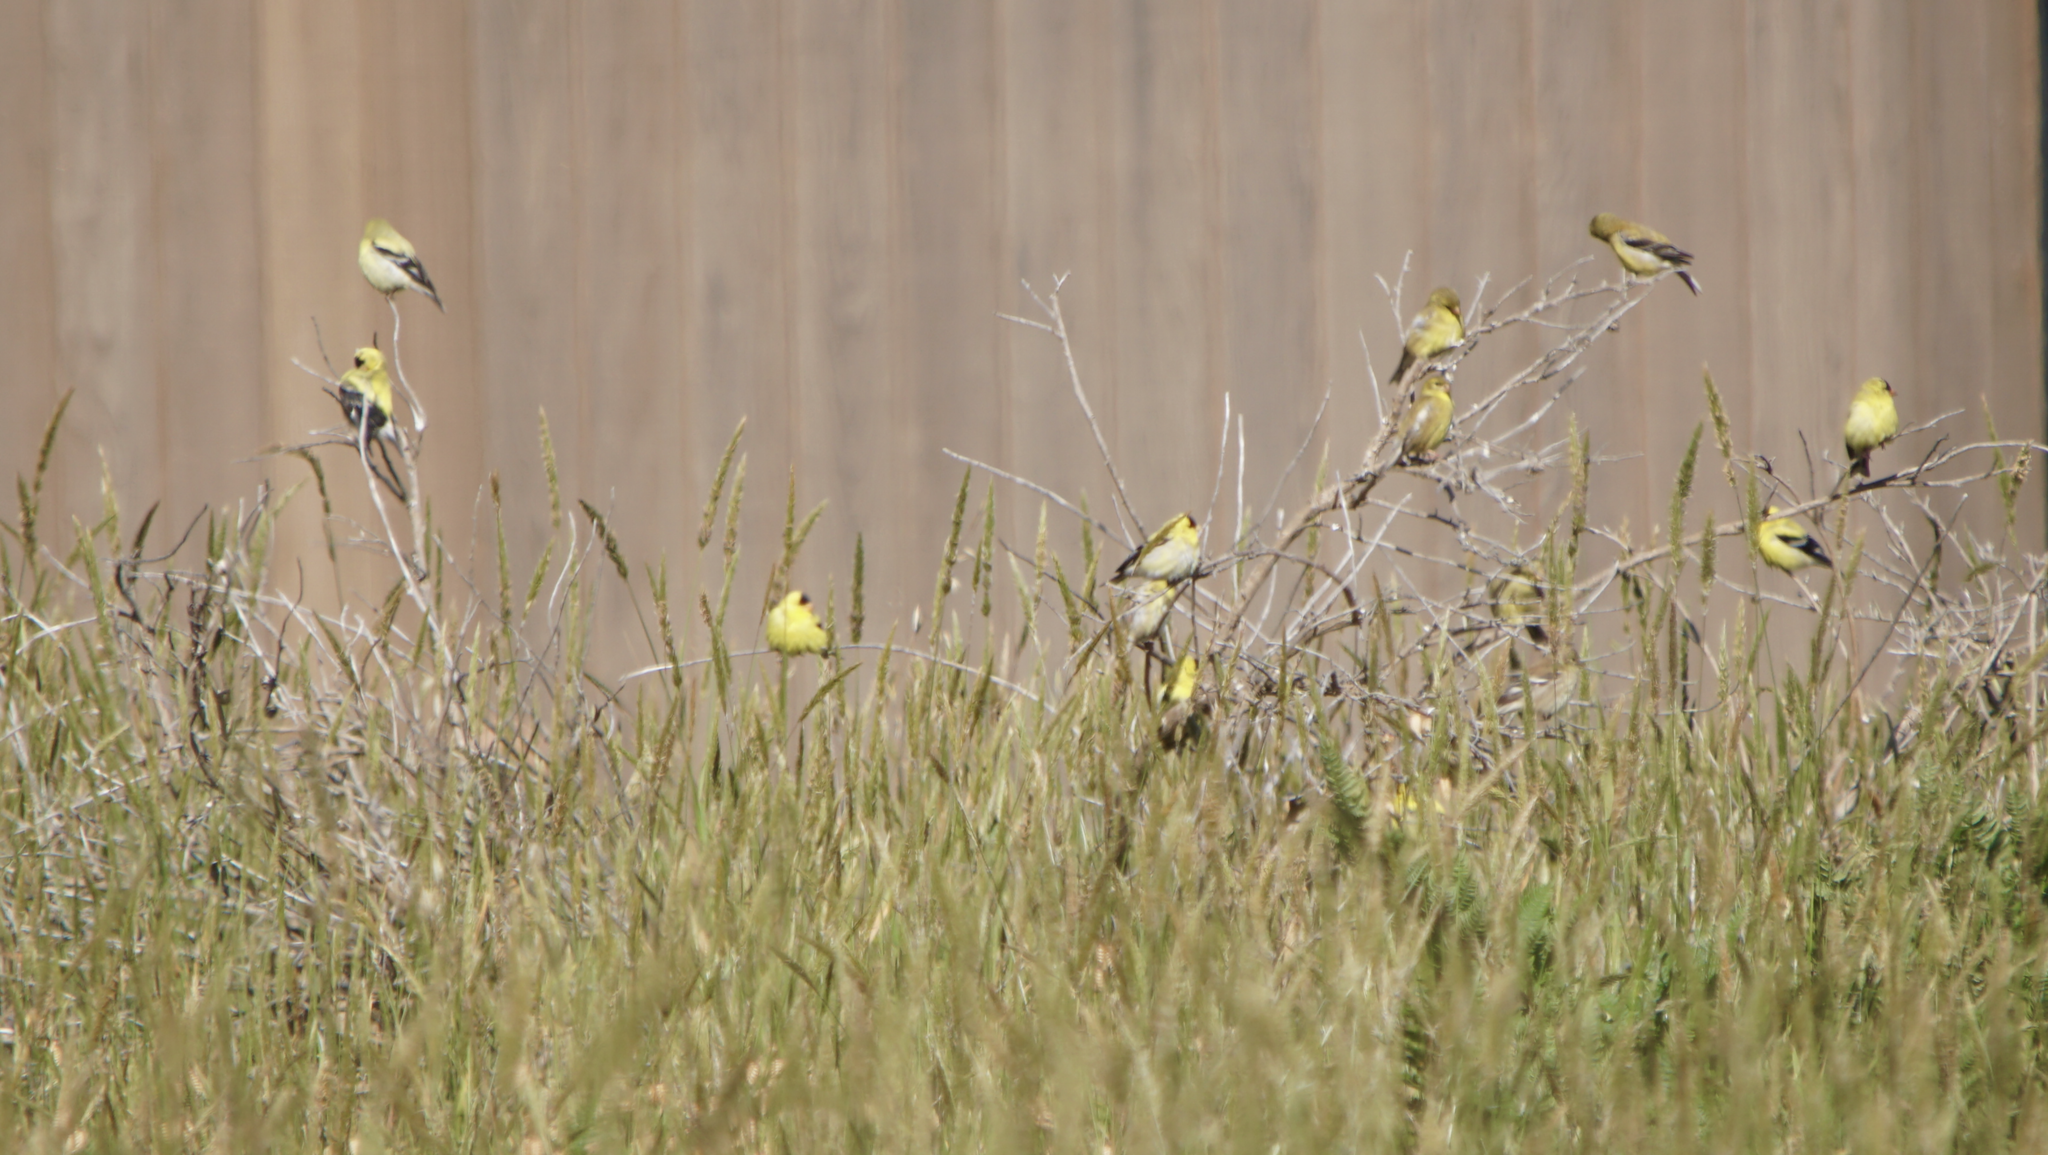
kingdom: Animalia
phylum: Chordata
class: Aves
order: Passeriformes
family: Fringillidae
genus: Spinus
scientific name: Spinus tristis
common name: American goldfinch
